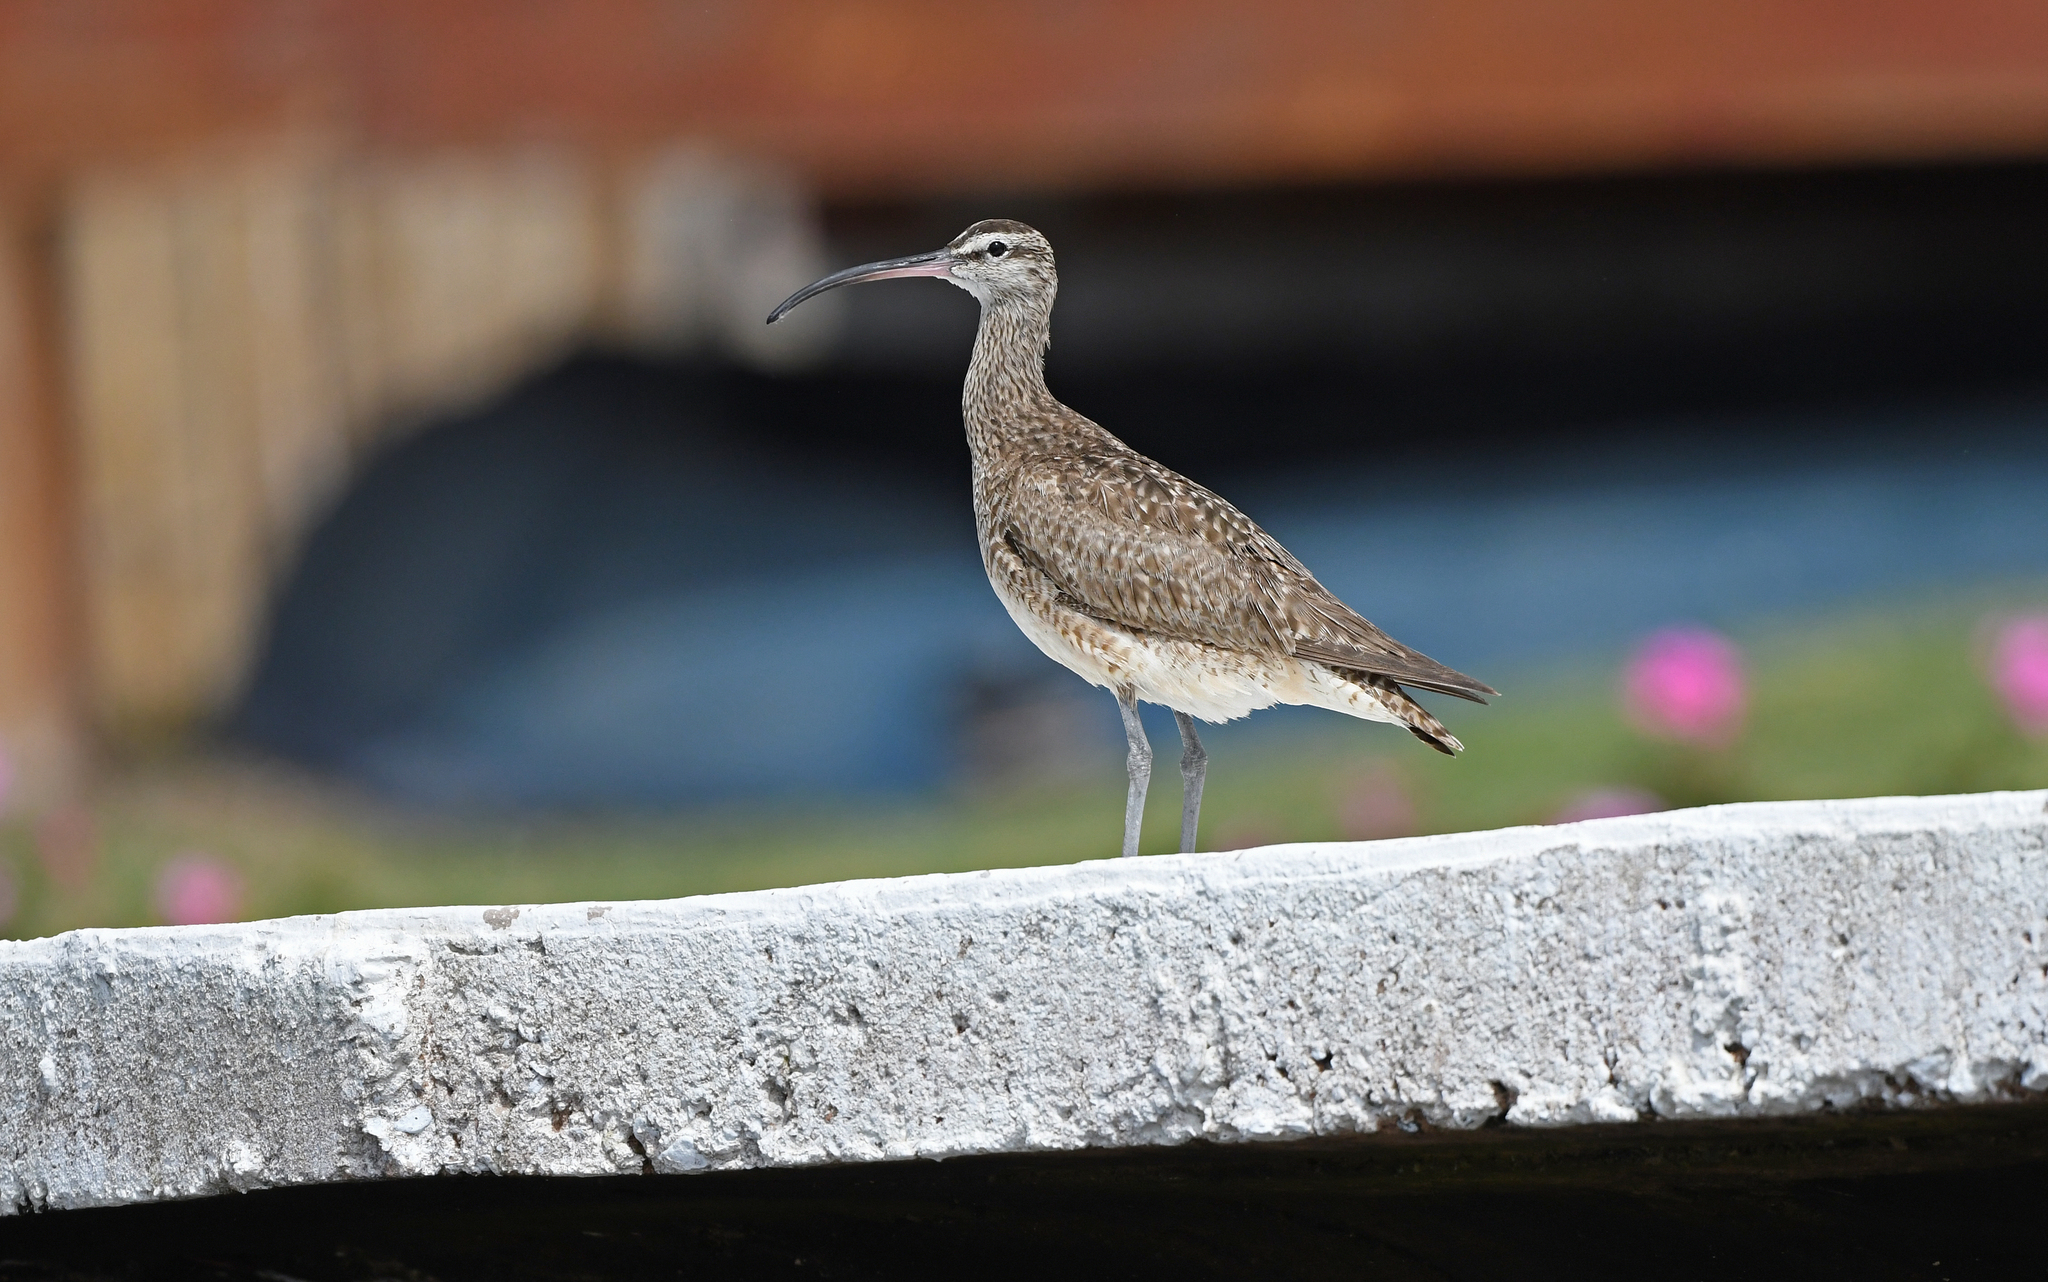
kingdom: Animalia
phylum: Chordata
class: Aves
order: Charadriiformes
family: Scolopacidae
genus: Numenius
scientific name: Numenius phaeopus
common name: Whimbrel
